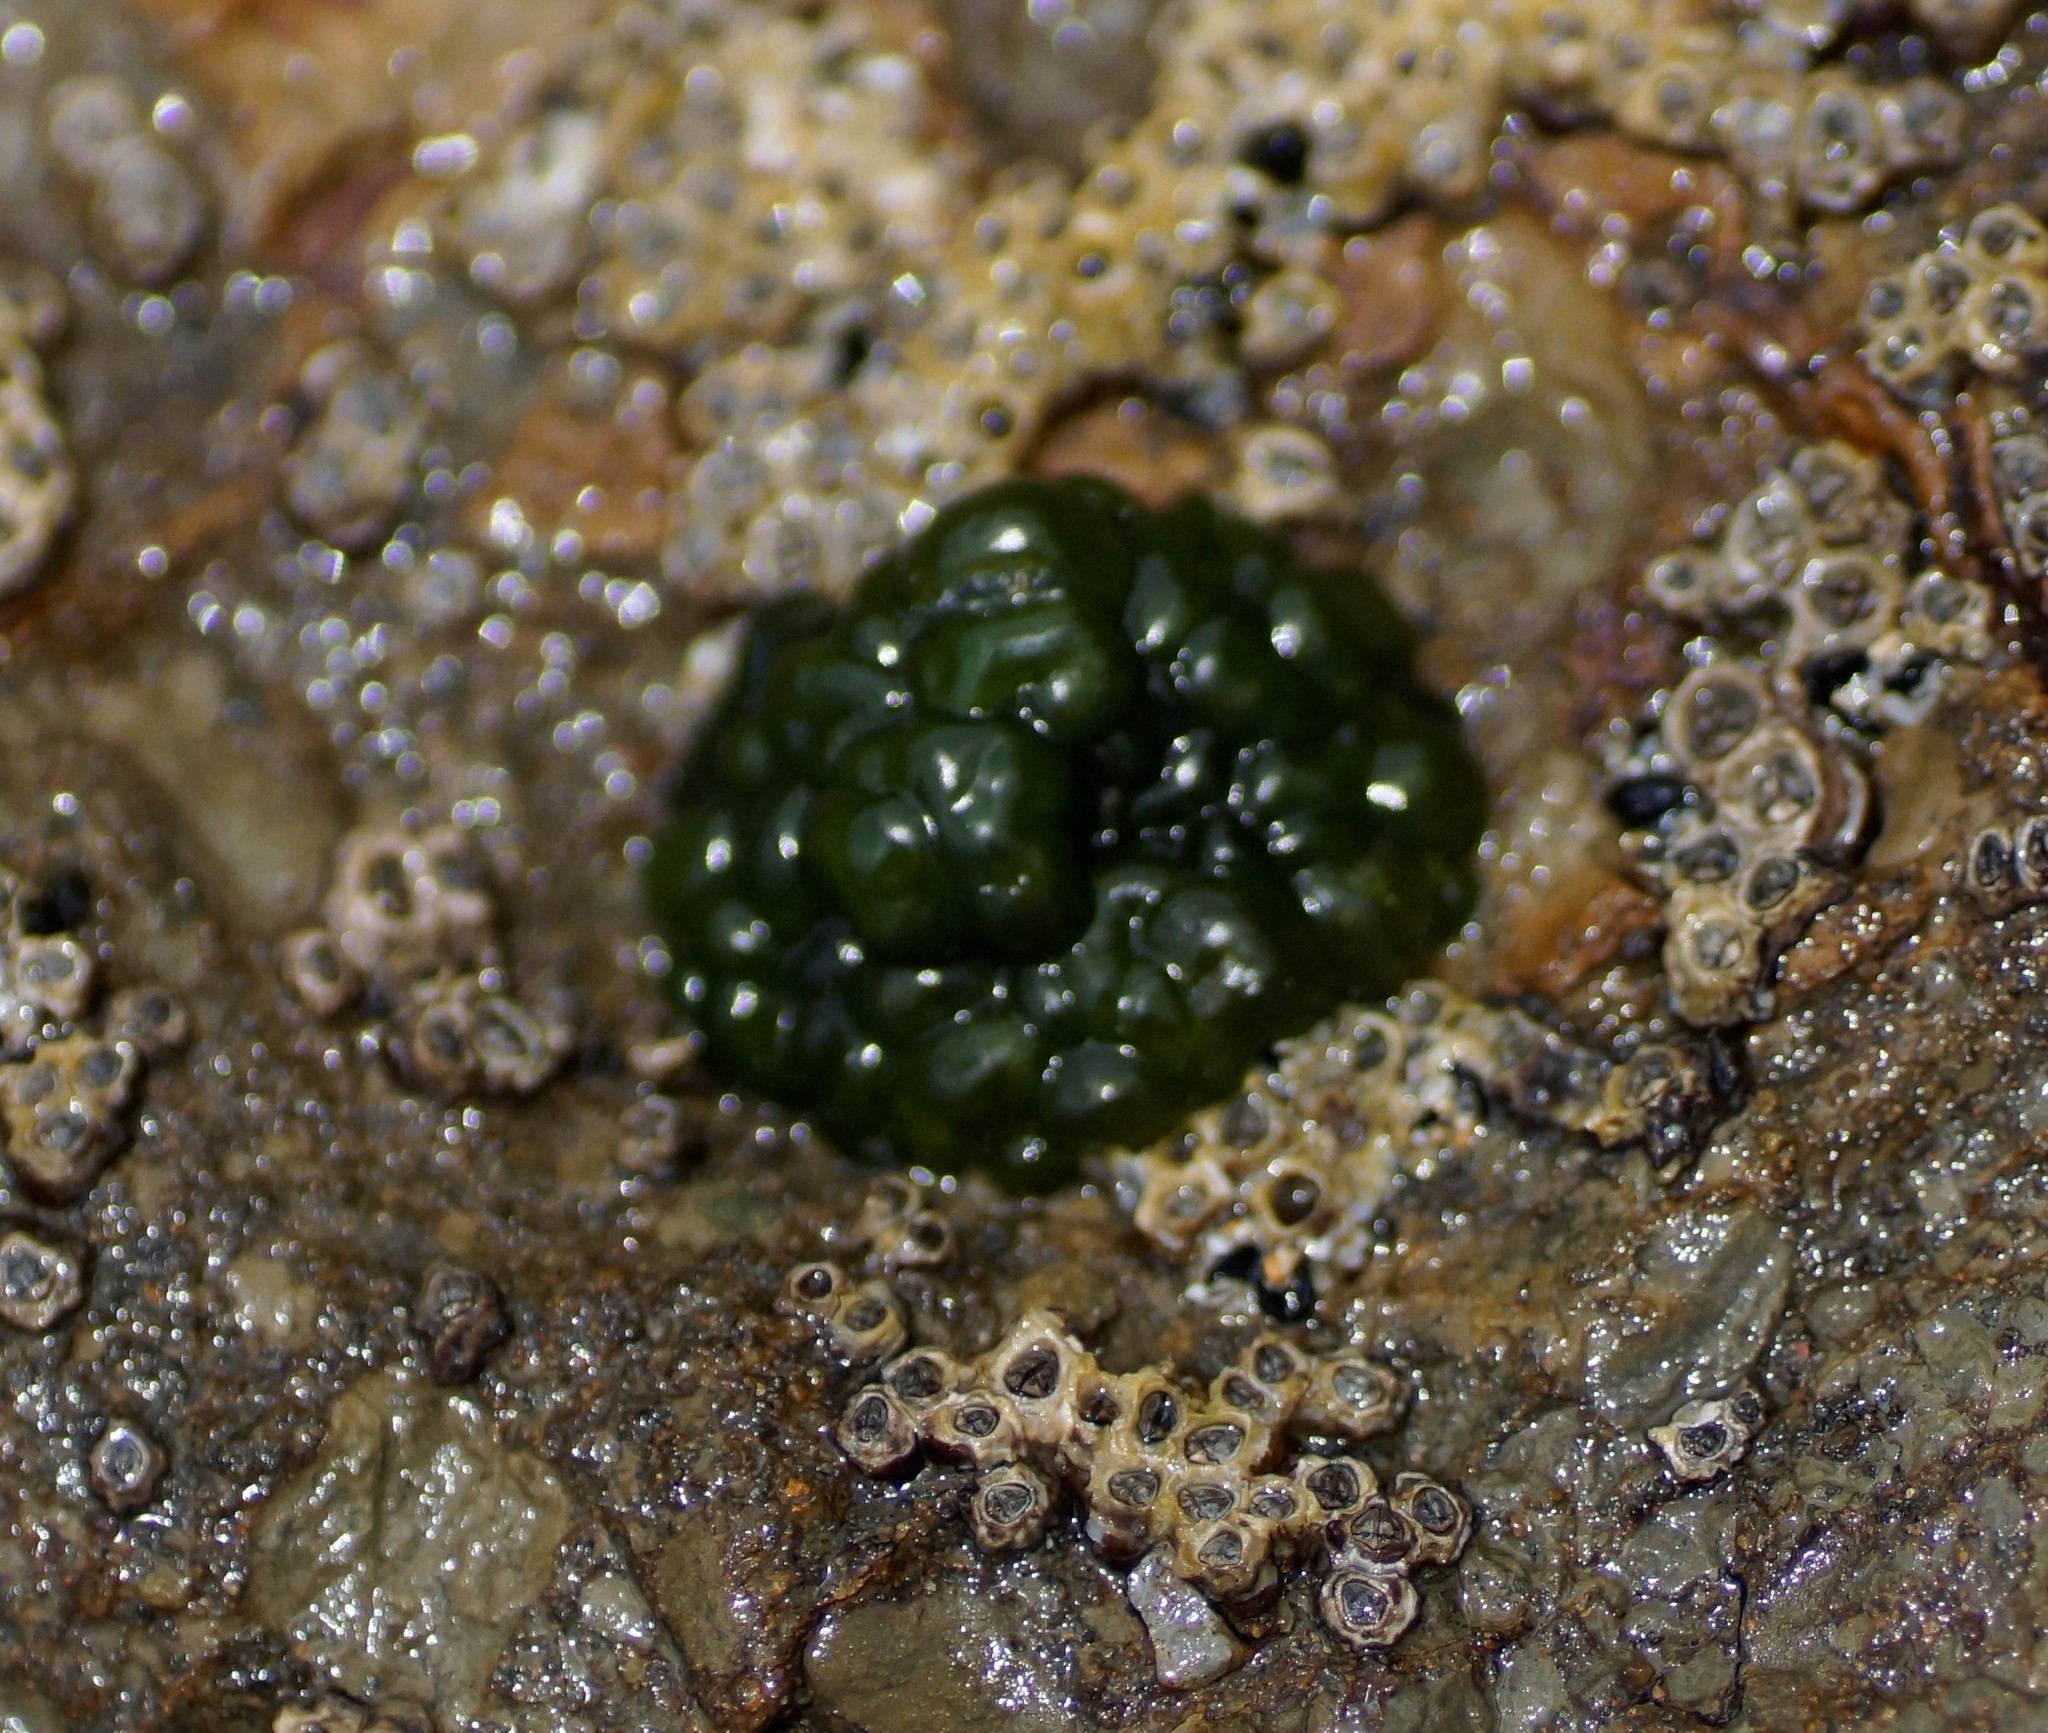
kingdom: Bacteria
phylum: Cyanobacteria
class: Cyanobacteriia
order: Cyanobacteriales
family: Rivulariaceae
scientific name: Rivulariaceae
